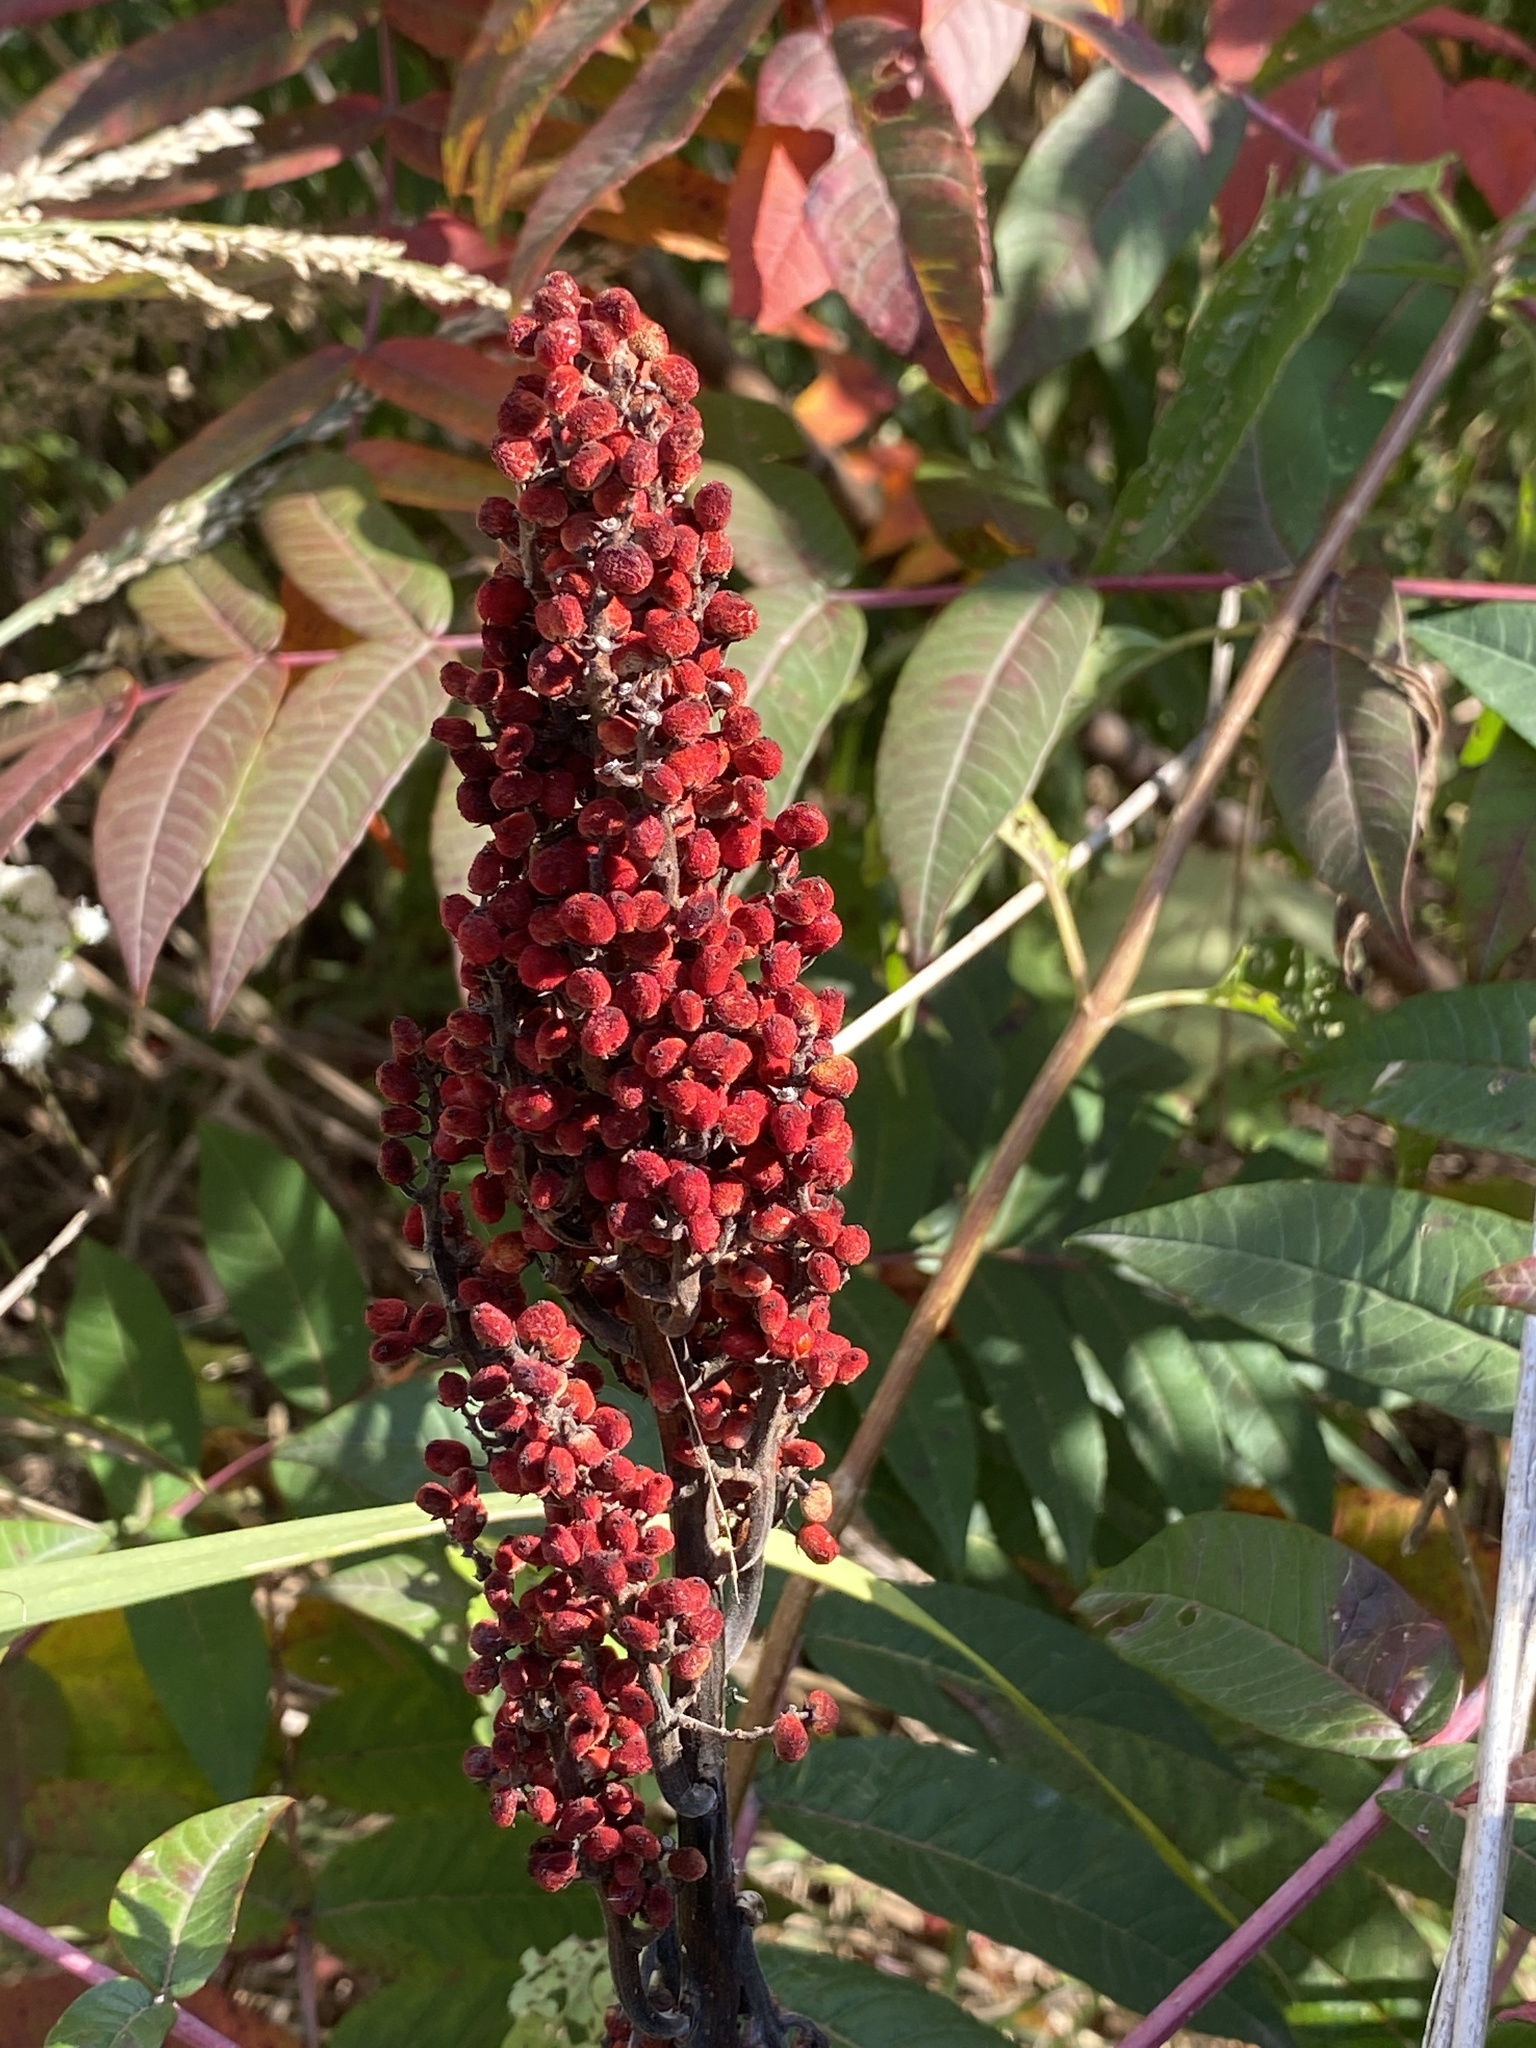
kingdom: Plantae
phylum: Tracheophyta
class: Magnoliopsida
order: Sapindales
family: Anacardiaceae
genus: Rhus
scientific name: Rhus glabra
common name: Scarlet sumac
